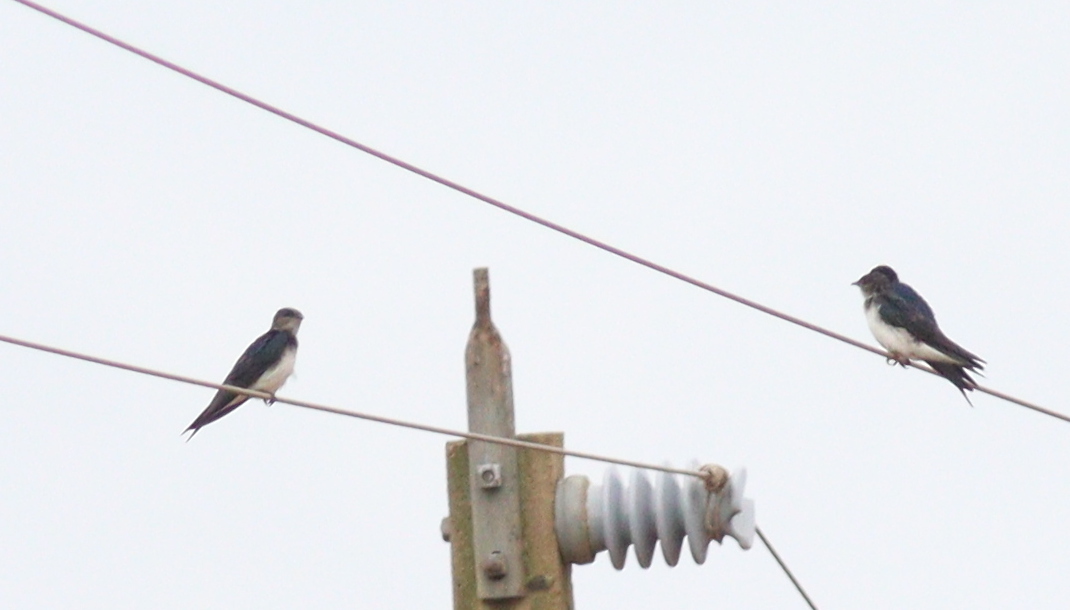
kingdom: Animalia
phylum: Chordata
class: Aves
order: Passeriformes
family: Hirundinidae
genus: Progne
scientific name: Progne chalybea
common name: Grey-breasted martin
